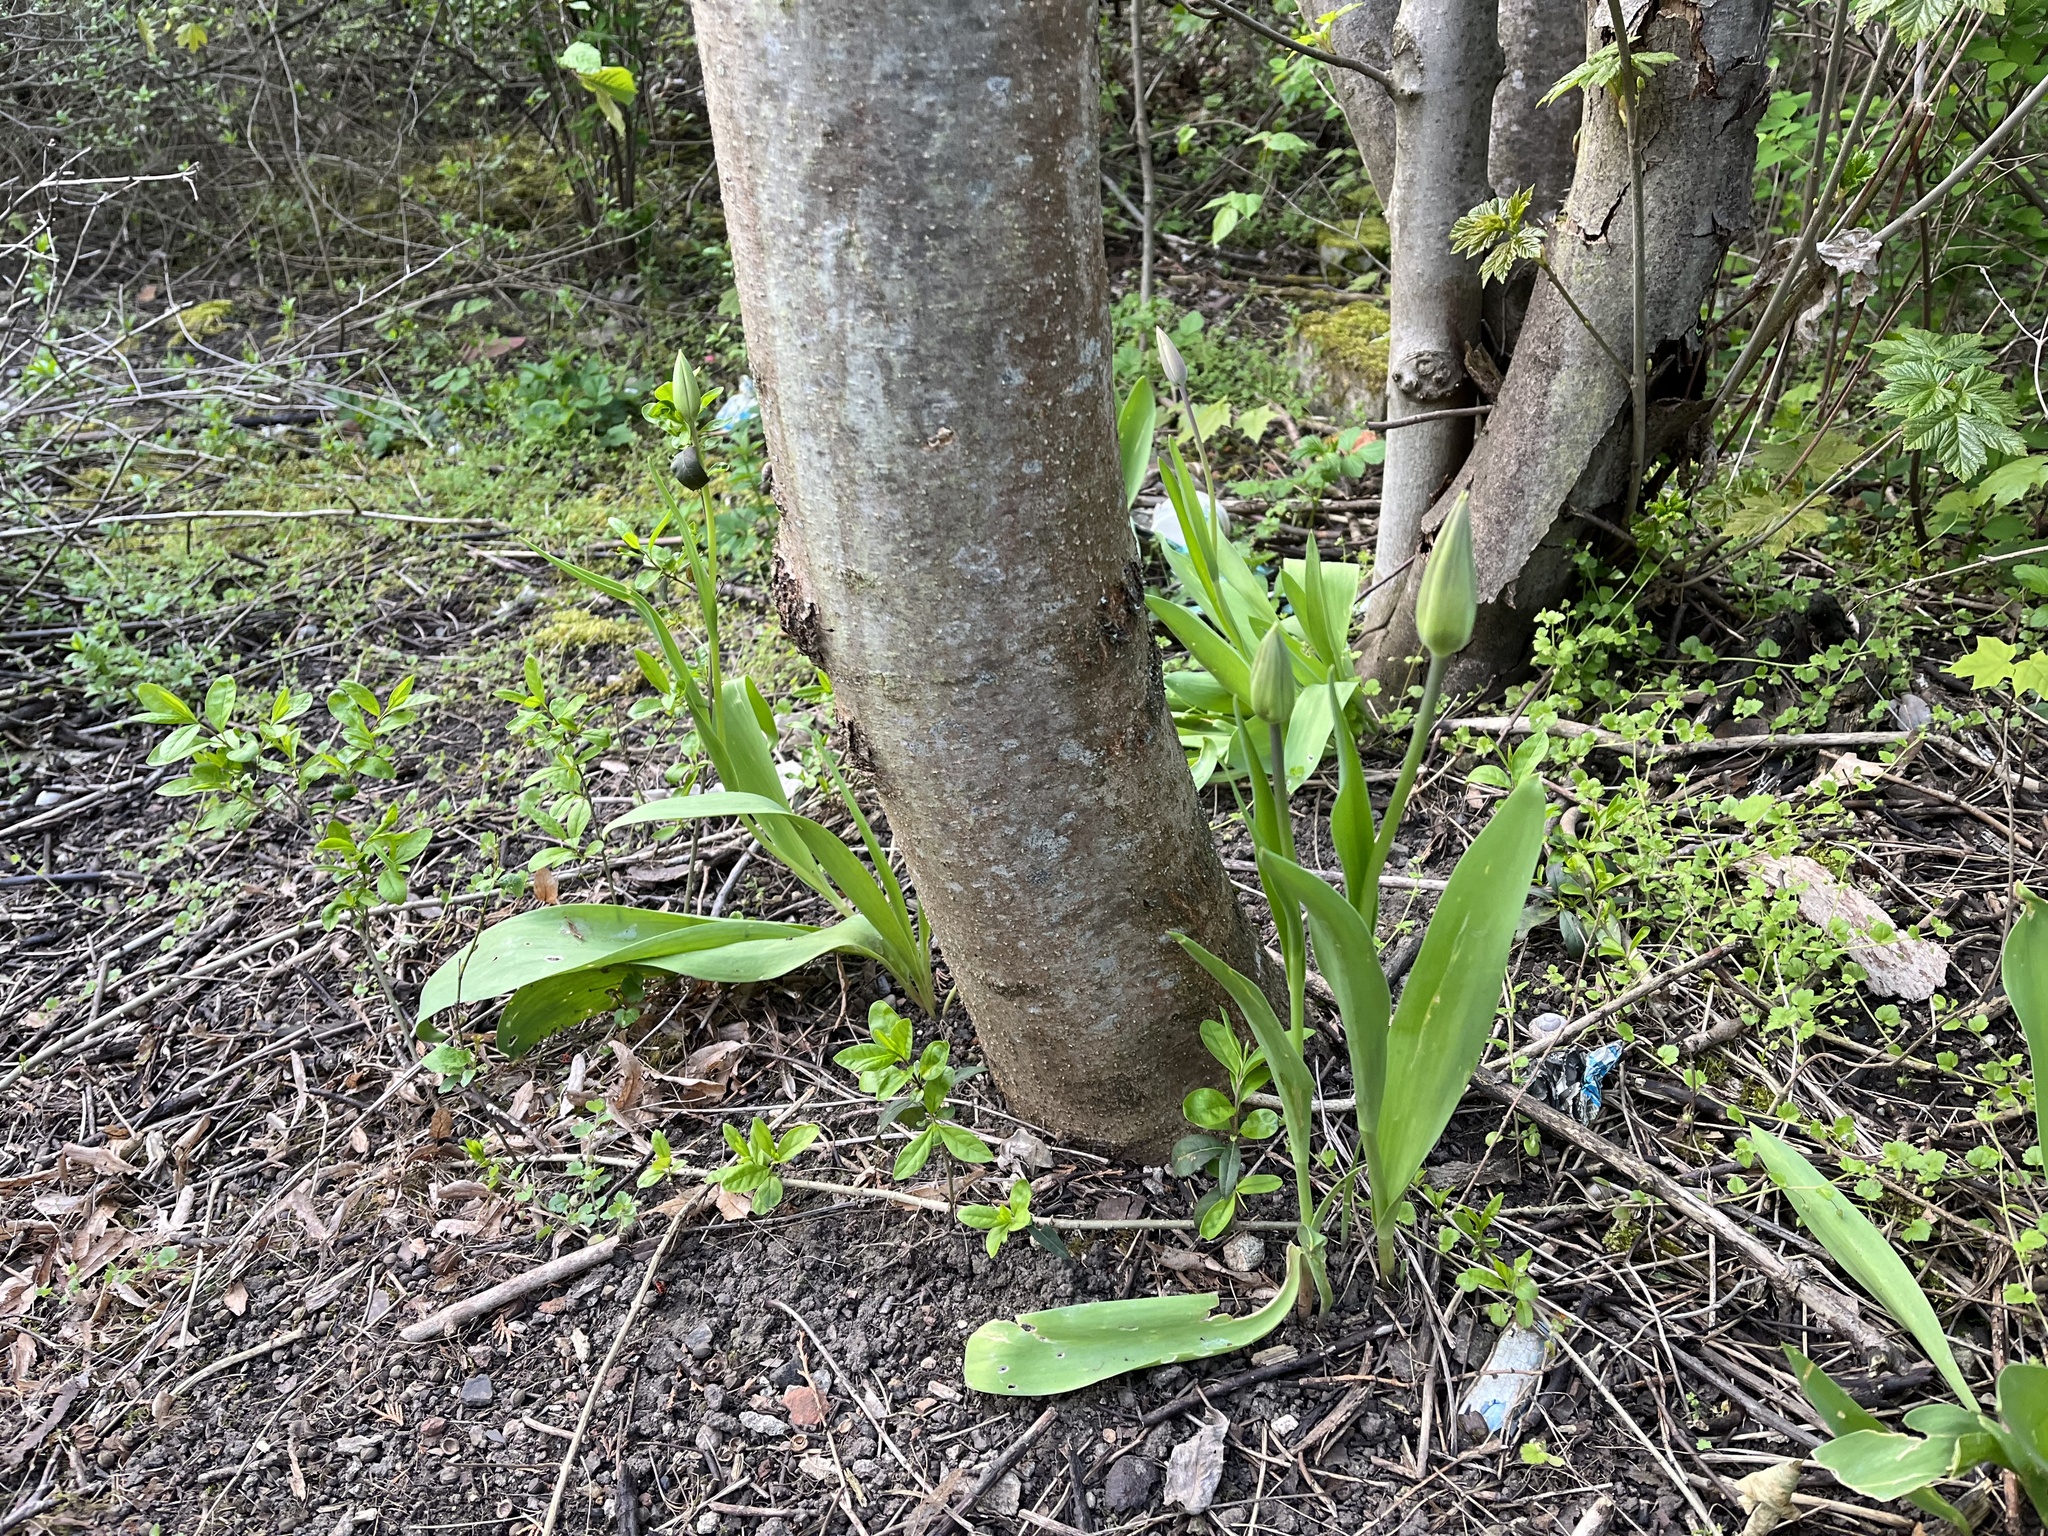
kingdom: Plantae
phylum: Tracheophyta
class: Liliopsida
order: Liliales
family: Liliaceae
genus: Tulipa
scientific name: Tulipa gesneriana
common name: Garden tulip
